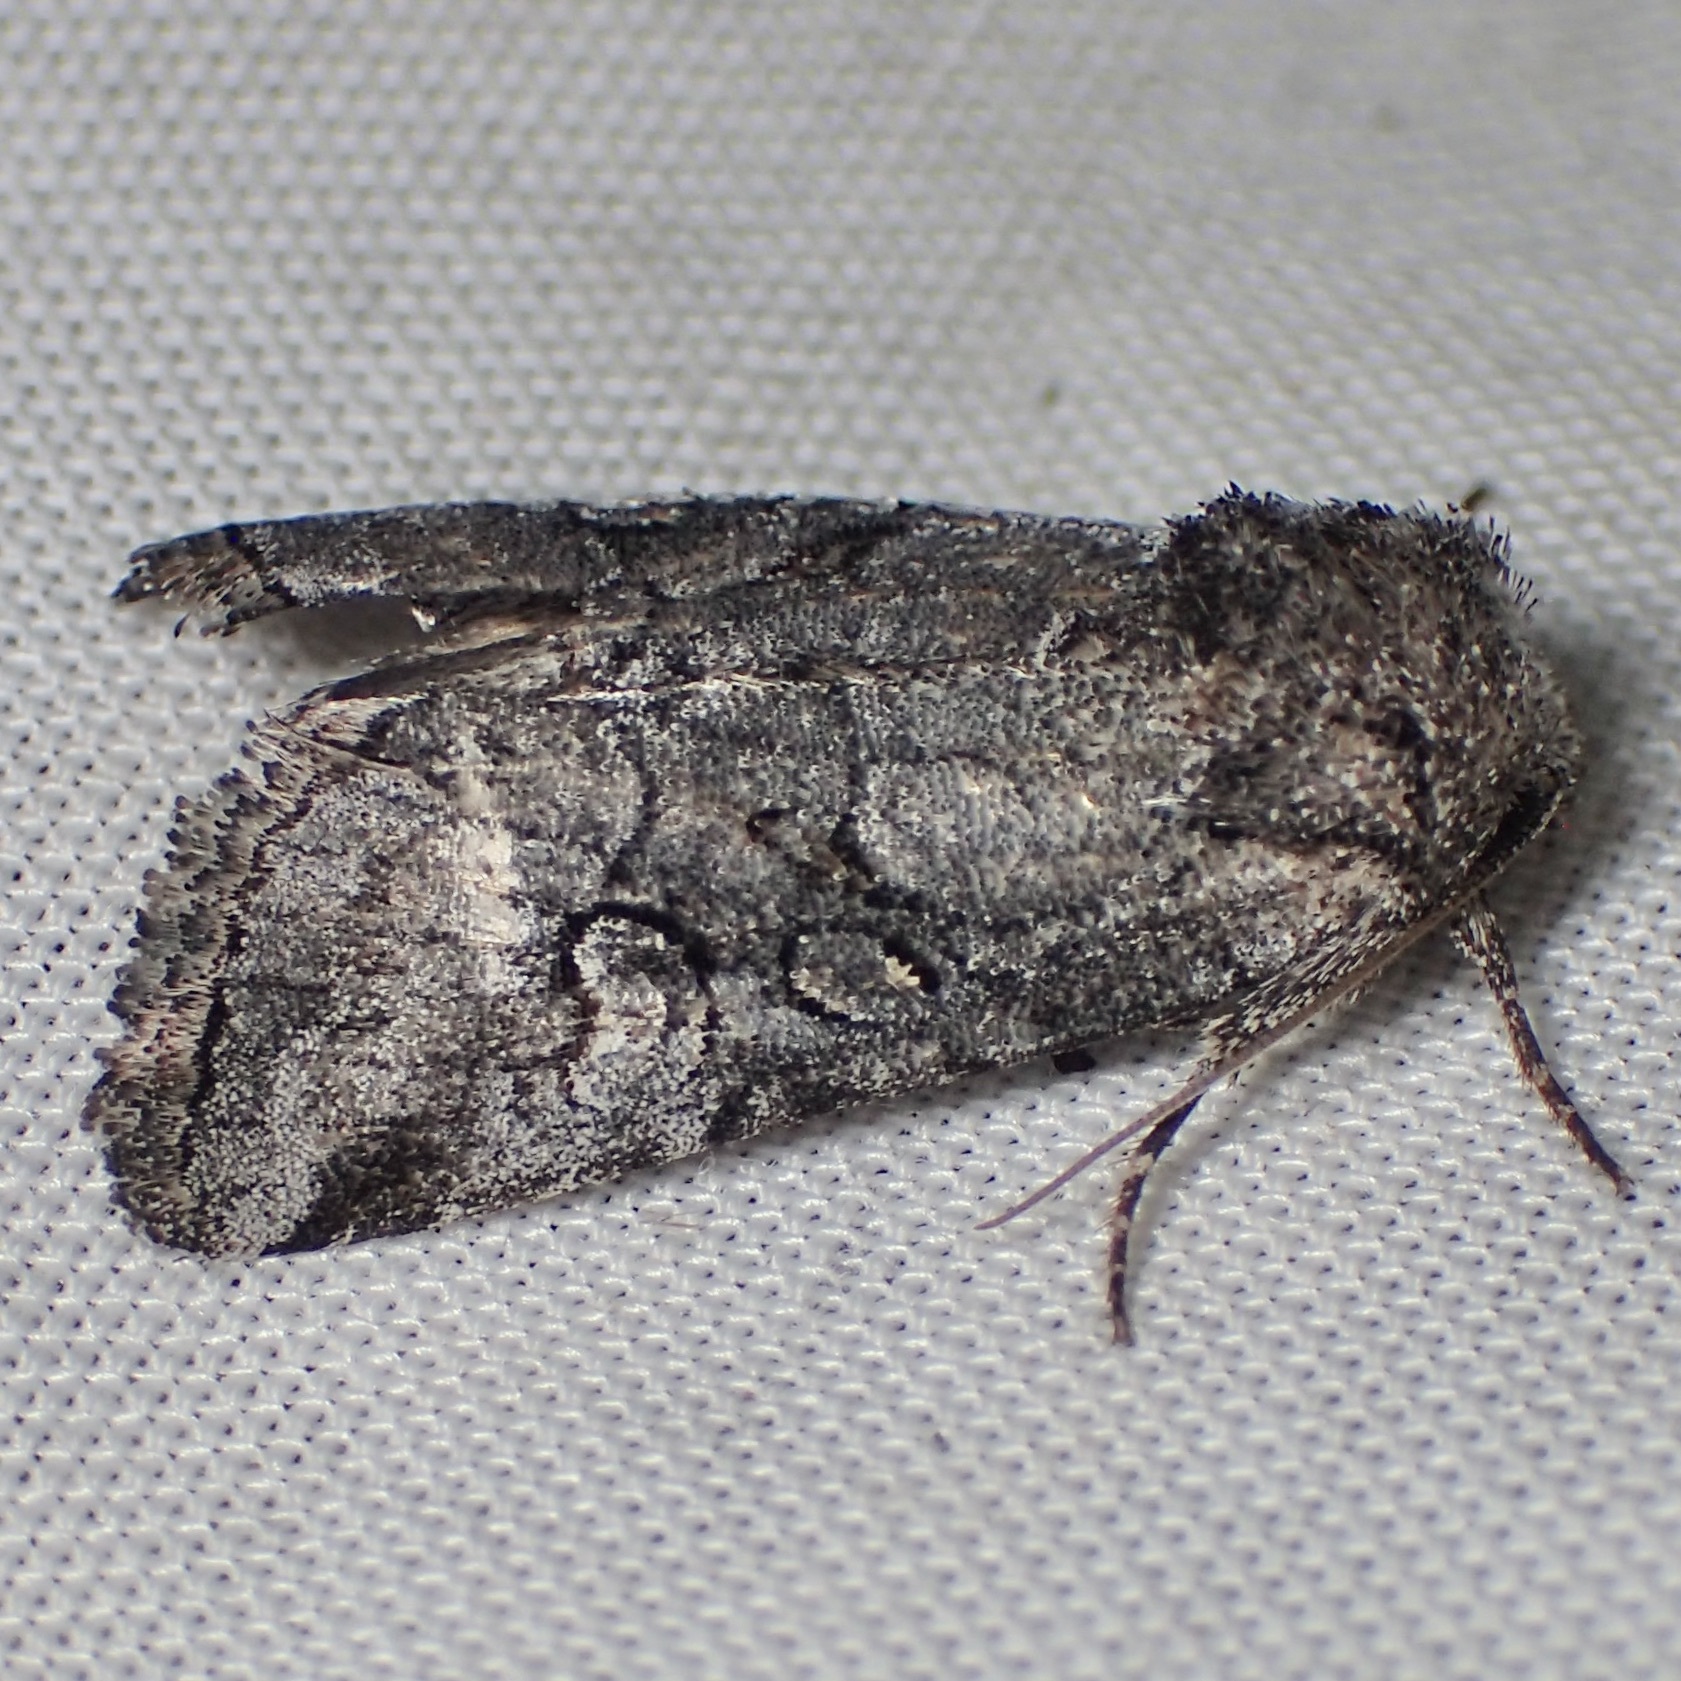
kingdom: Animalia
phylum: Arthropoda
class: Insecta
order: Lepidoptera
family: Noctuidae
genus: Oxycnemis
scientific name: Oxycnemis advena
